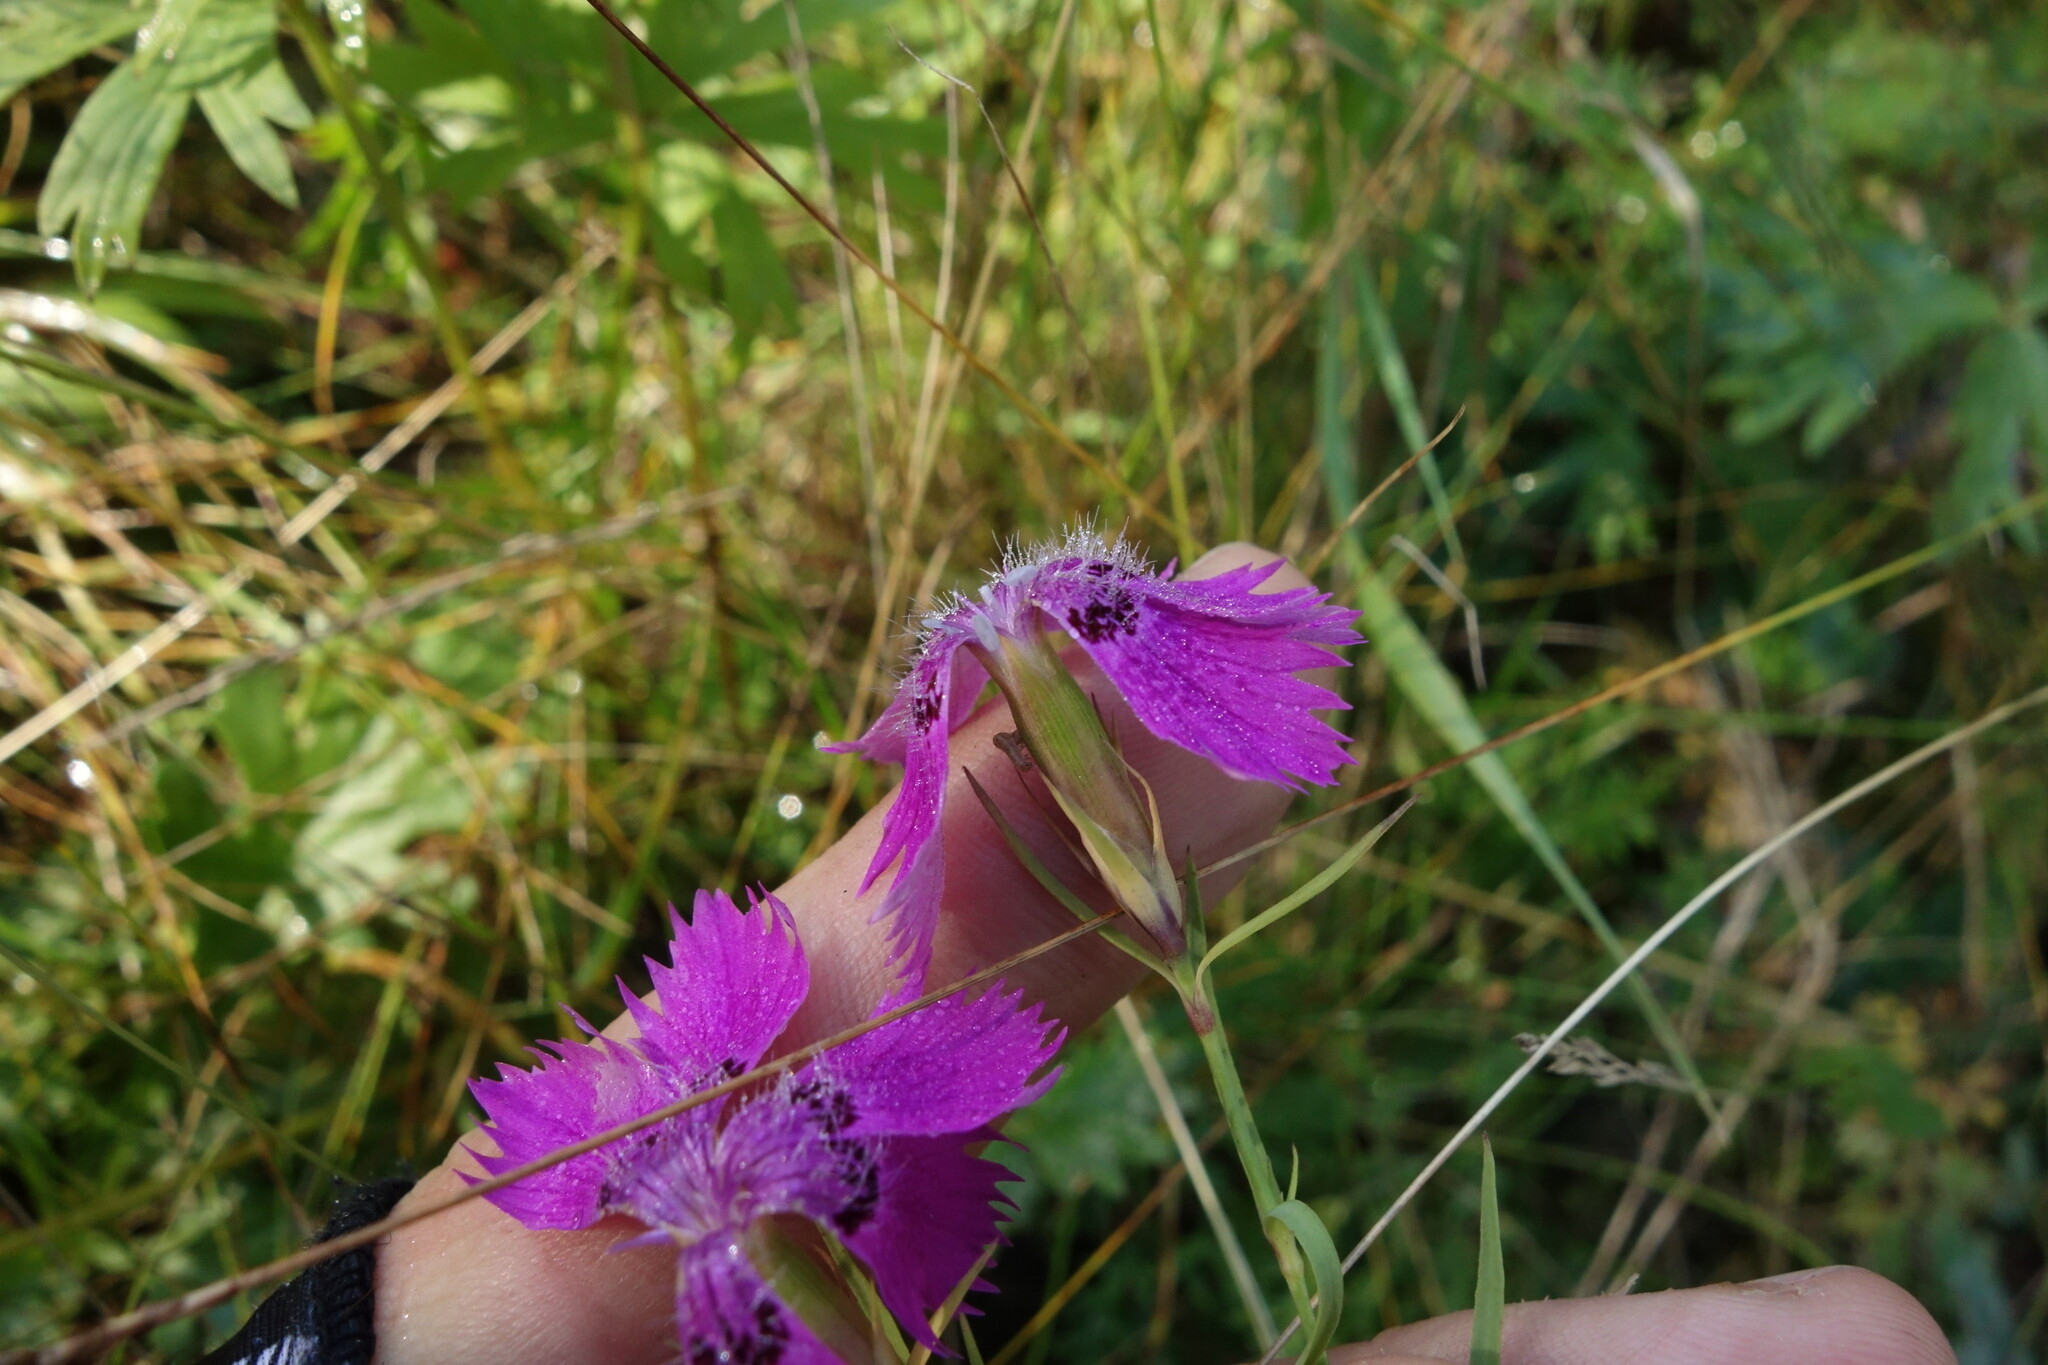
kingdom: Plantae
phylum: Tracheophyta
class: Magnoliopsida
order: Caryophyllales
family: Caryophyllaceae
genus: Dianthus
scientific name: Dianthus chinensis
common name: Rainbow pink
